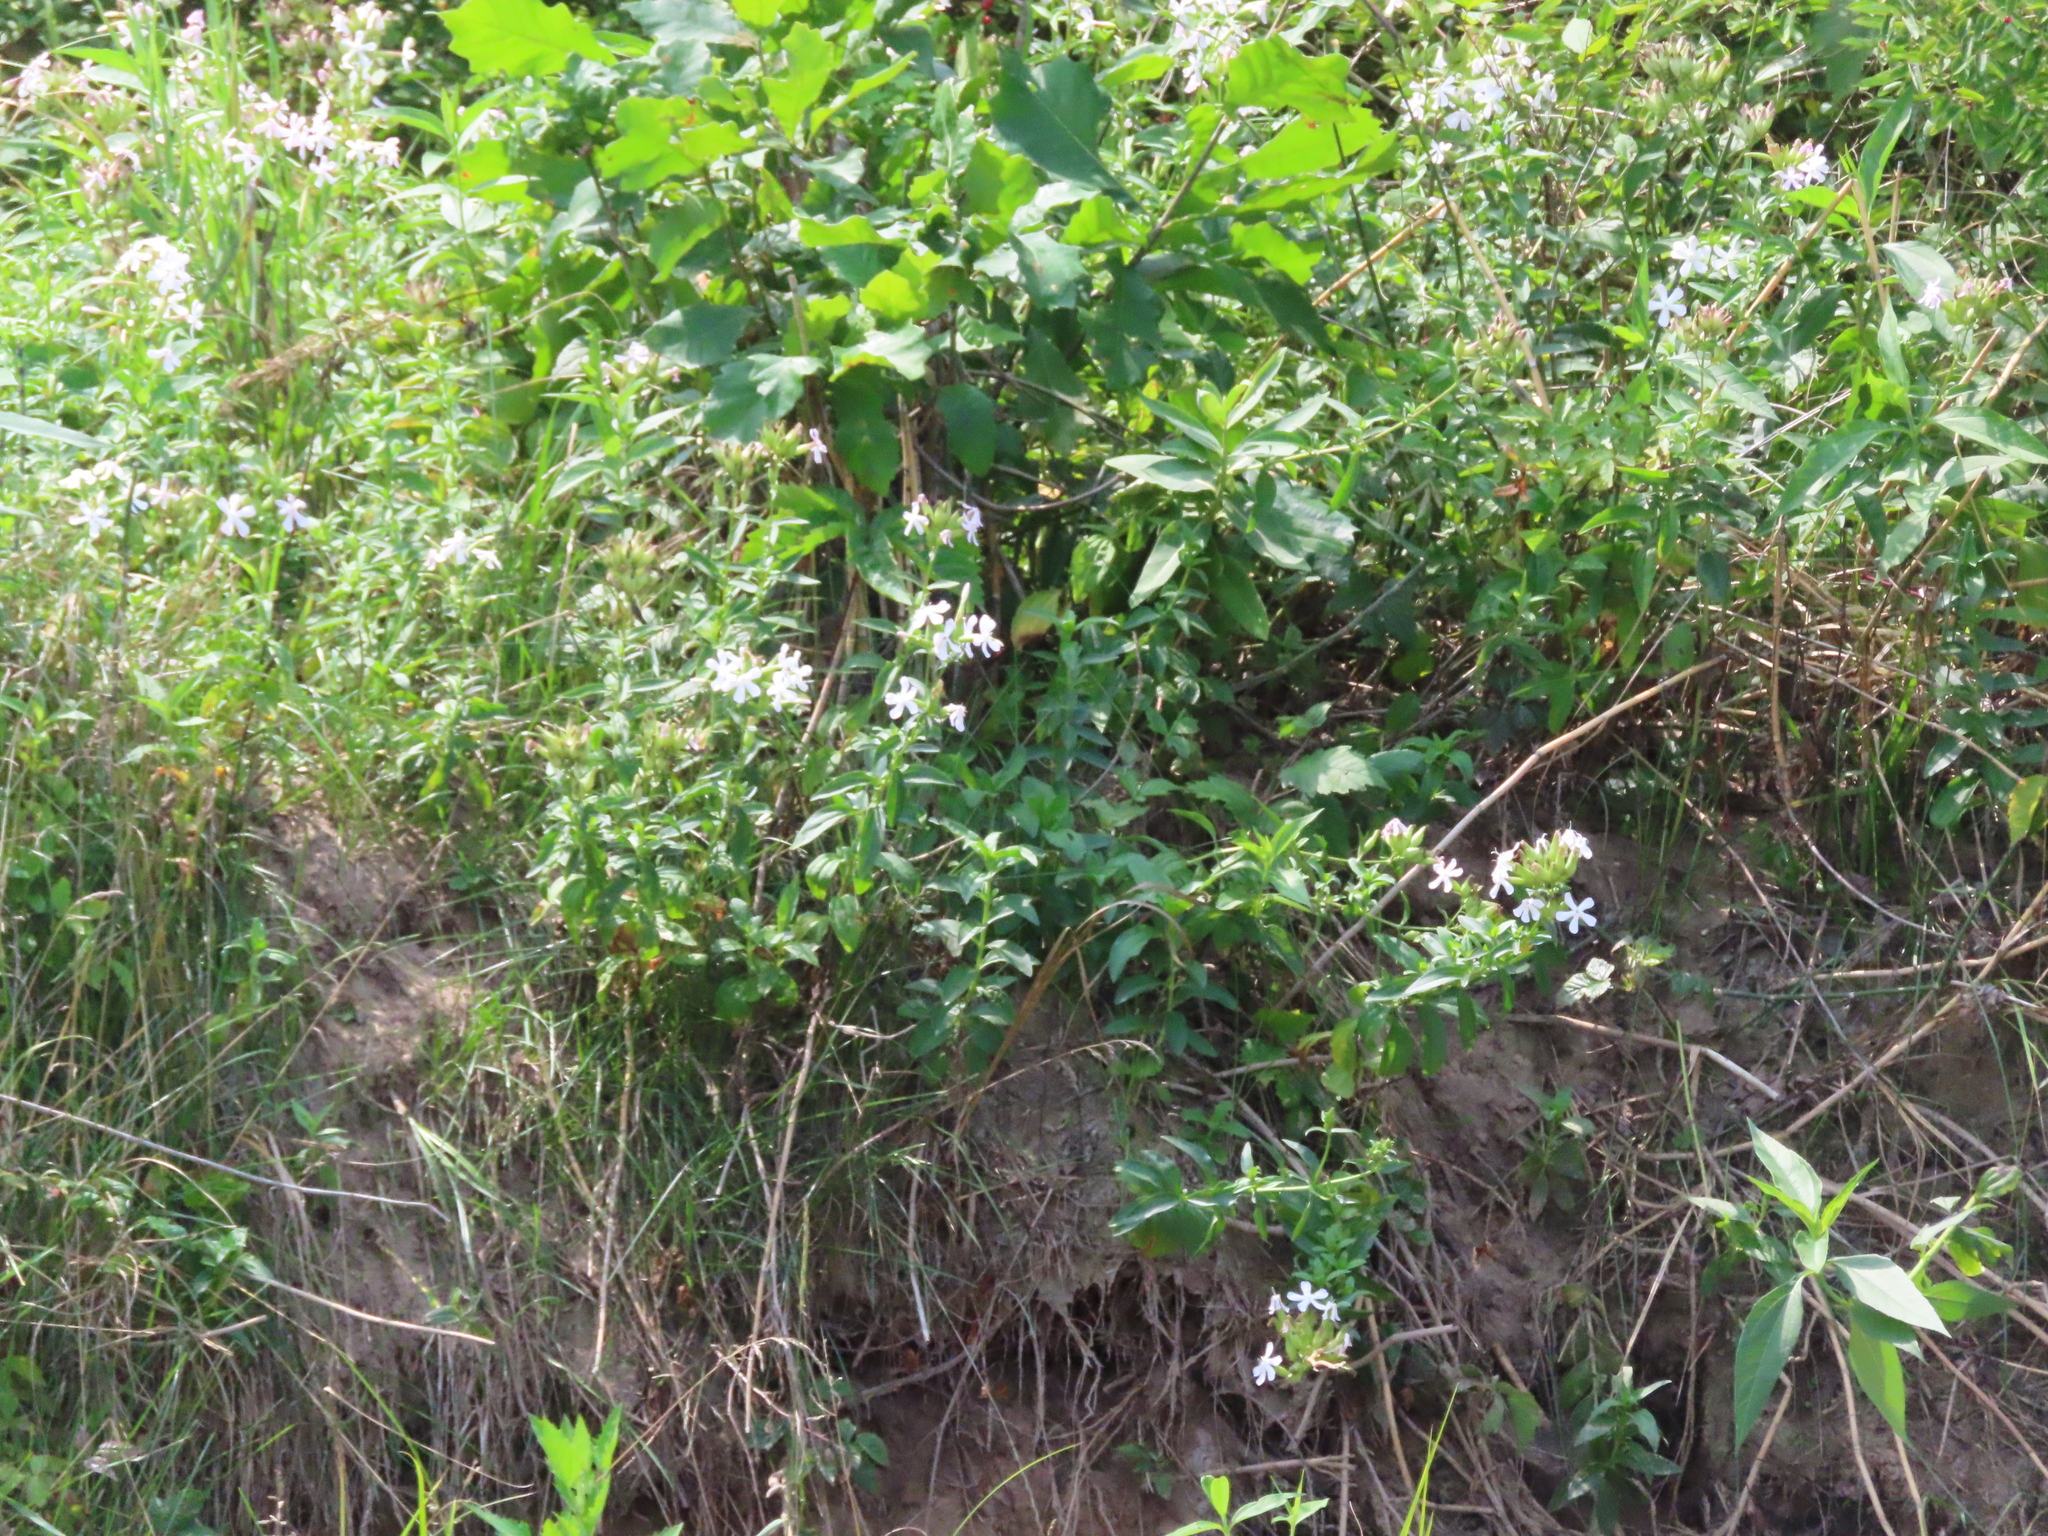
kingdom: Plantae
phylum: Tracheophyta
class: Magnoliopsida
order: Caryophyllales
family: Caryophyllaceae
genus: Saponaria
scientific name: Saponaria officinalis
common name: Soapwort
